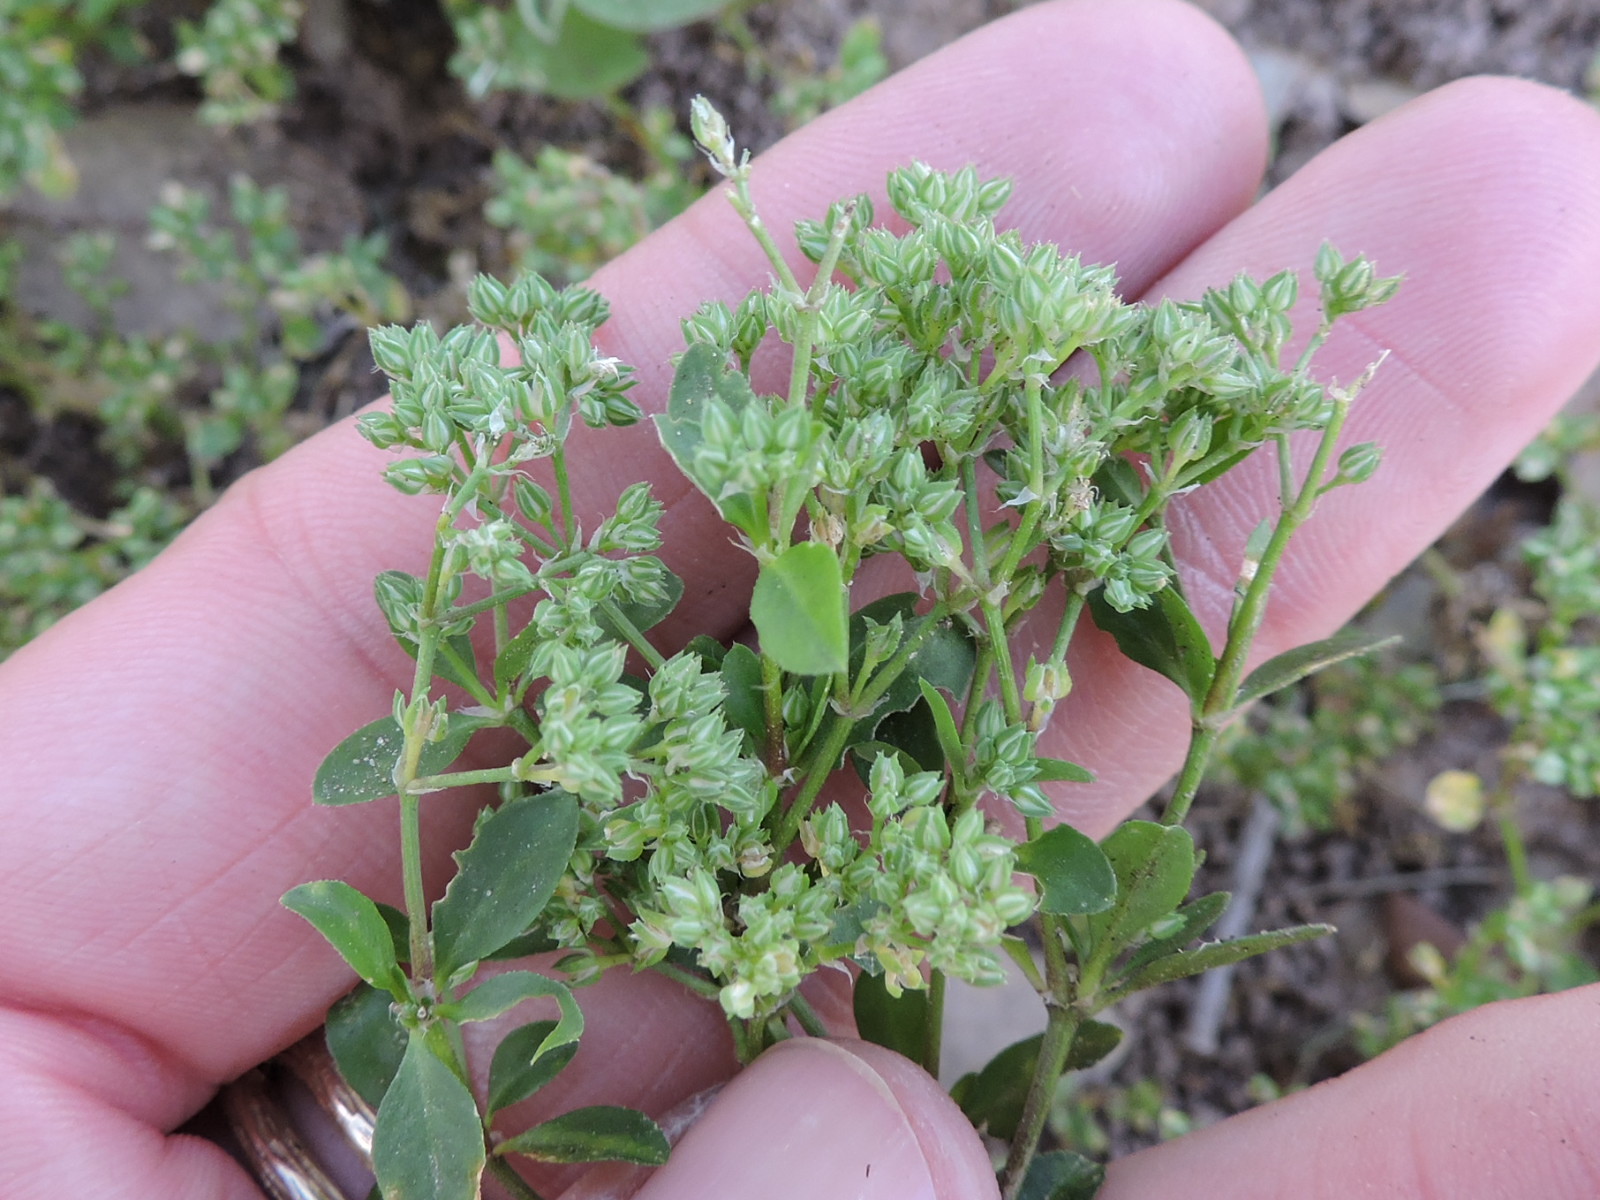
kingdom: Plantae
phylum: Tracheophyta
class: Magnoliopsida
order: Caryophyllales
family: Caryophyllaceae
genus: Polycarpon
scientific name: Polycarpon tetraphyllum
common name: Four-leaved all-seed
